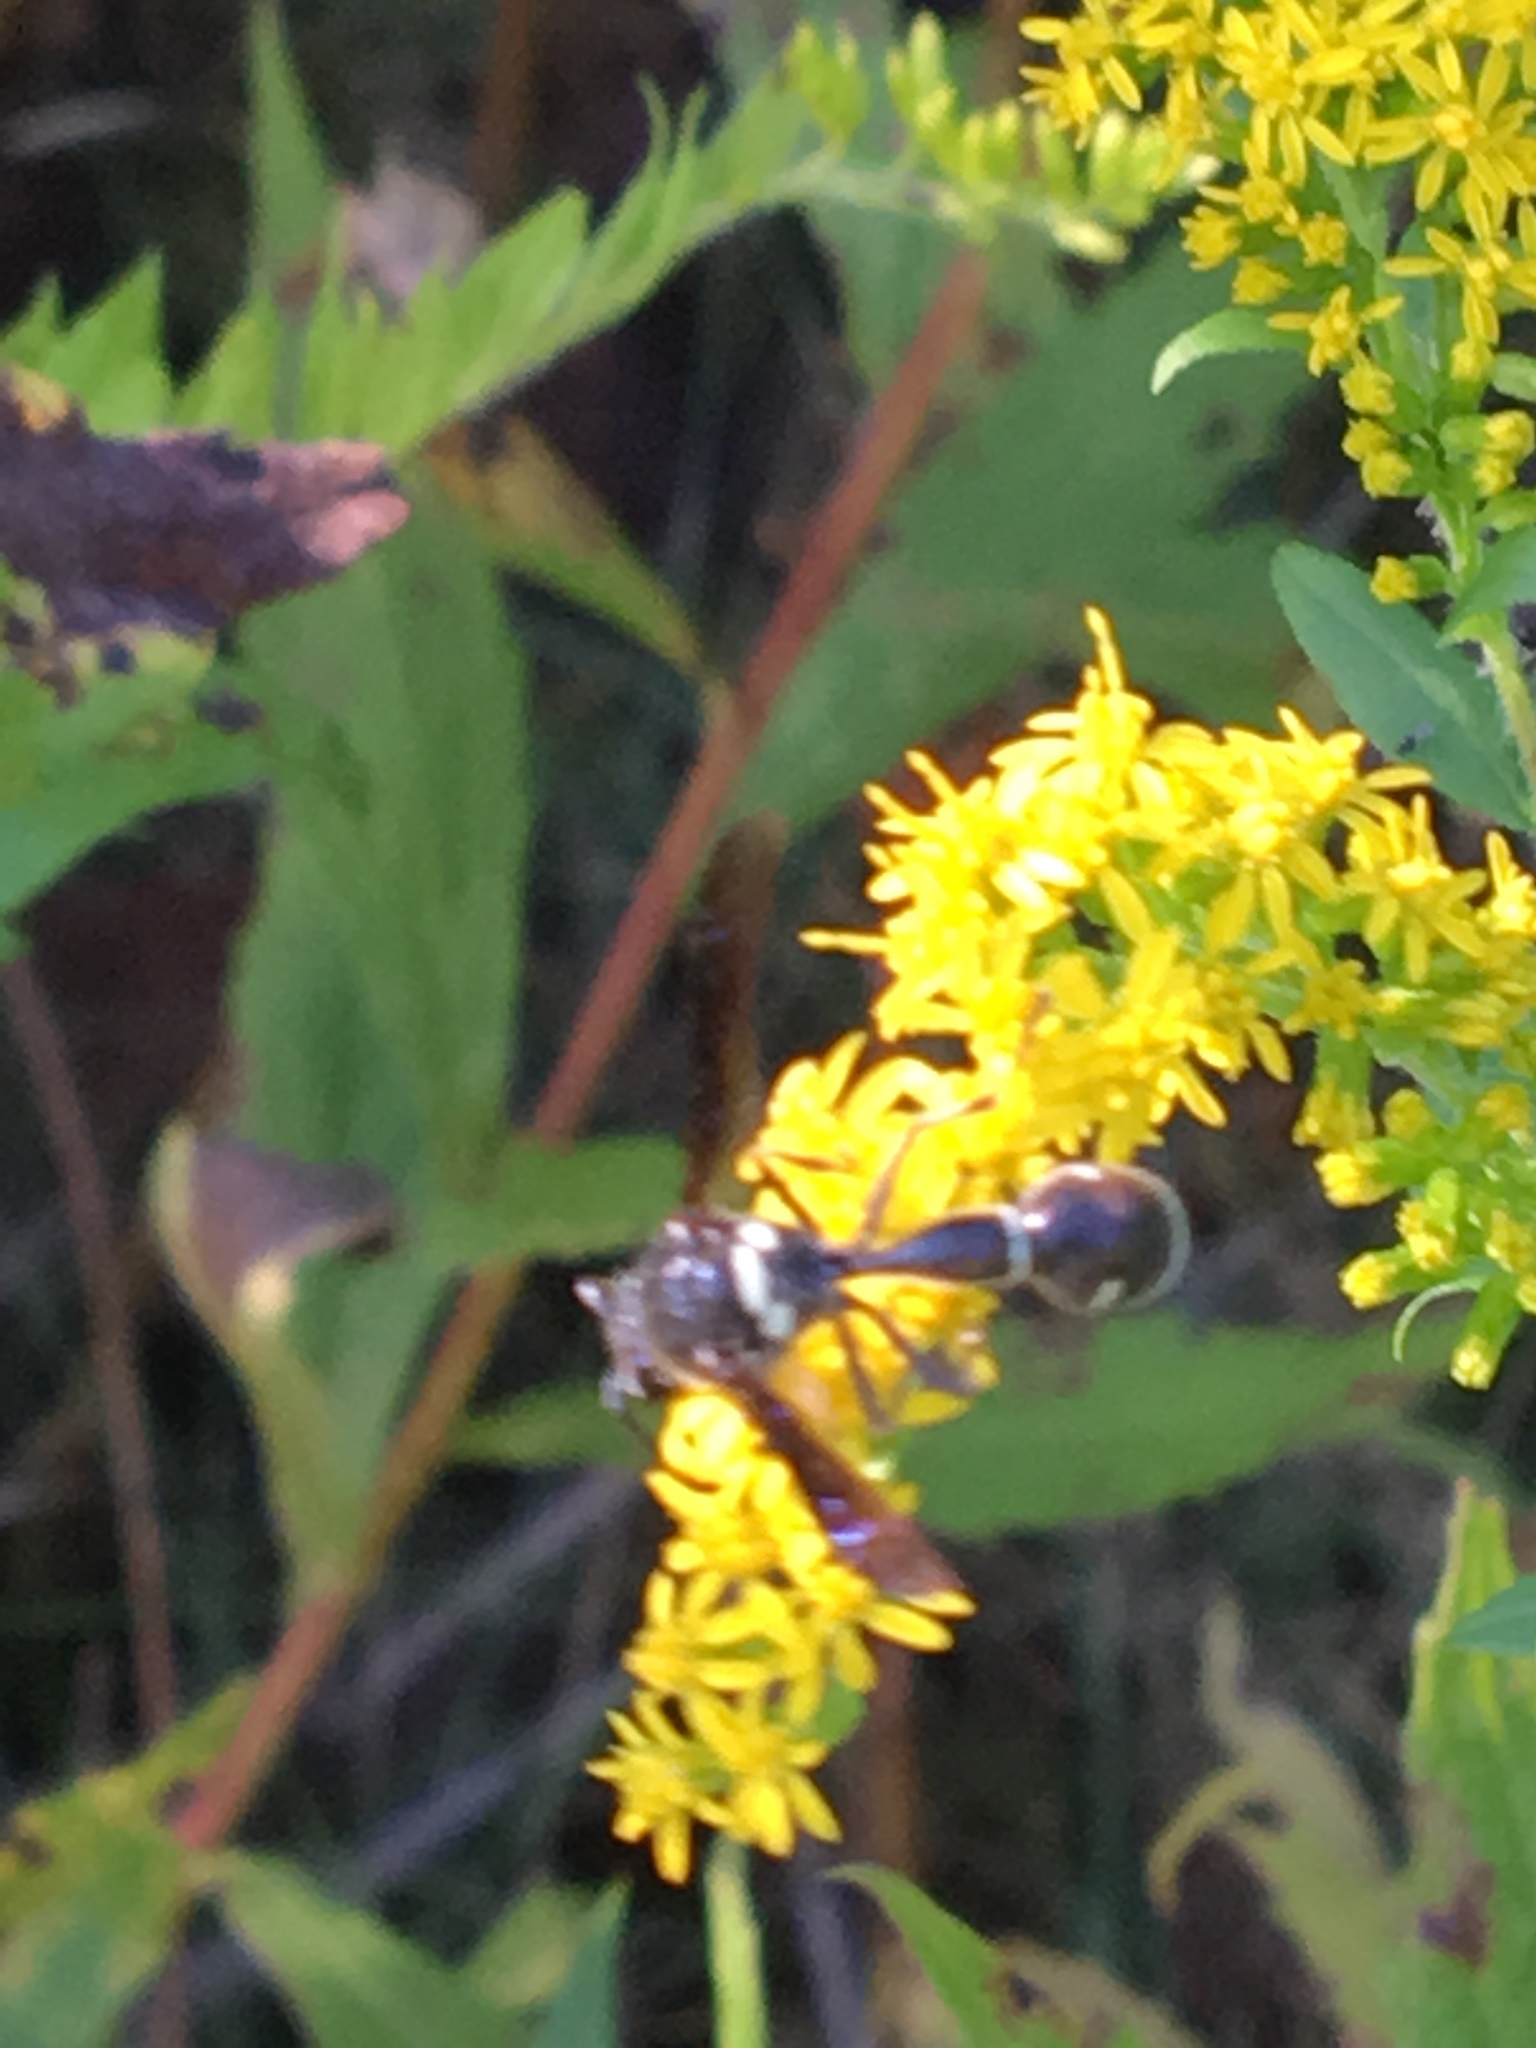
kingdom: Animalia
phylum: Arthropoda
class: Insecta
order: Hymenoptera
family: Vespidae
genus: Eumenes
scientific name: Eumenes fraternus
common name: Fraternal potter wasp
